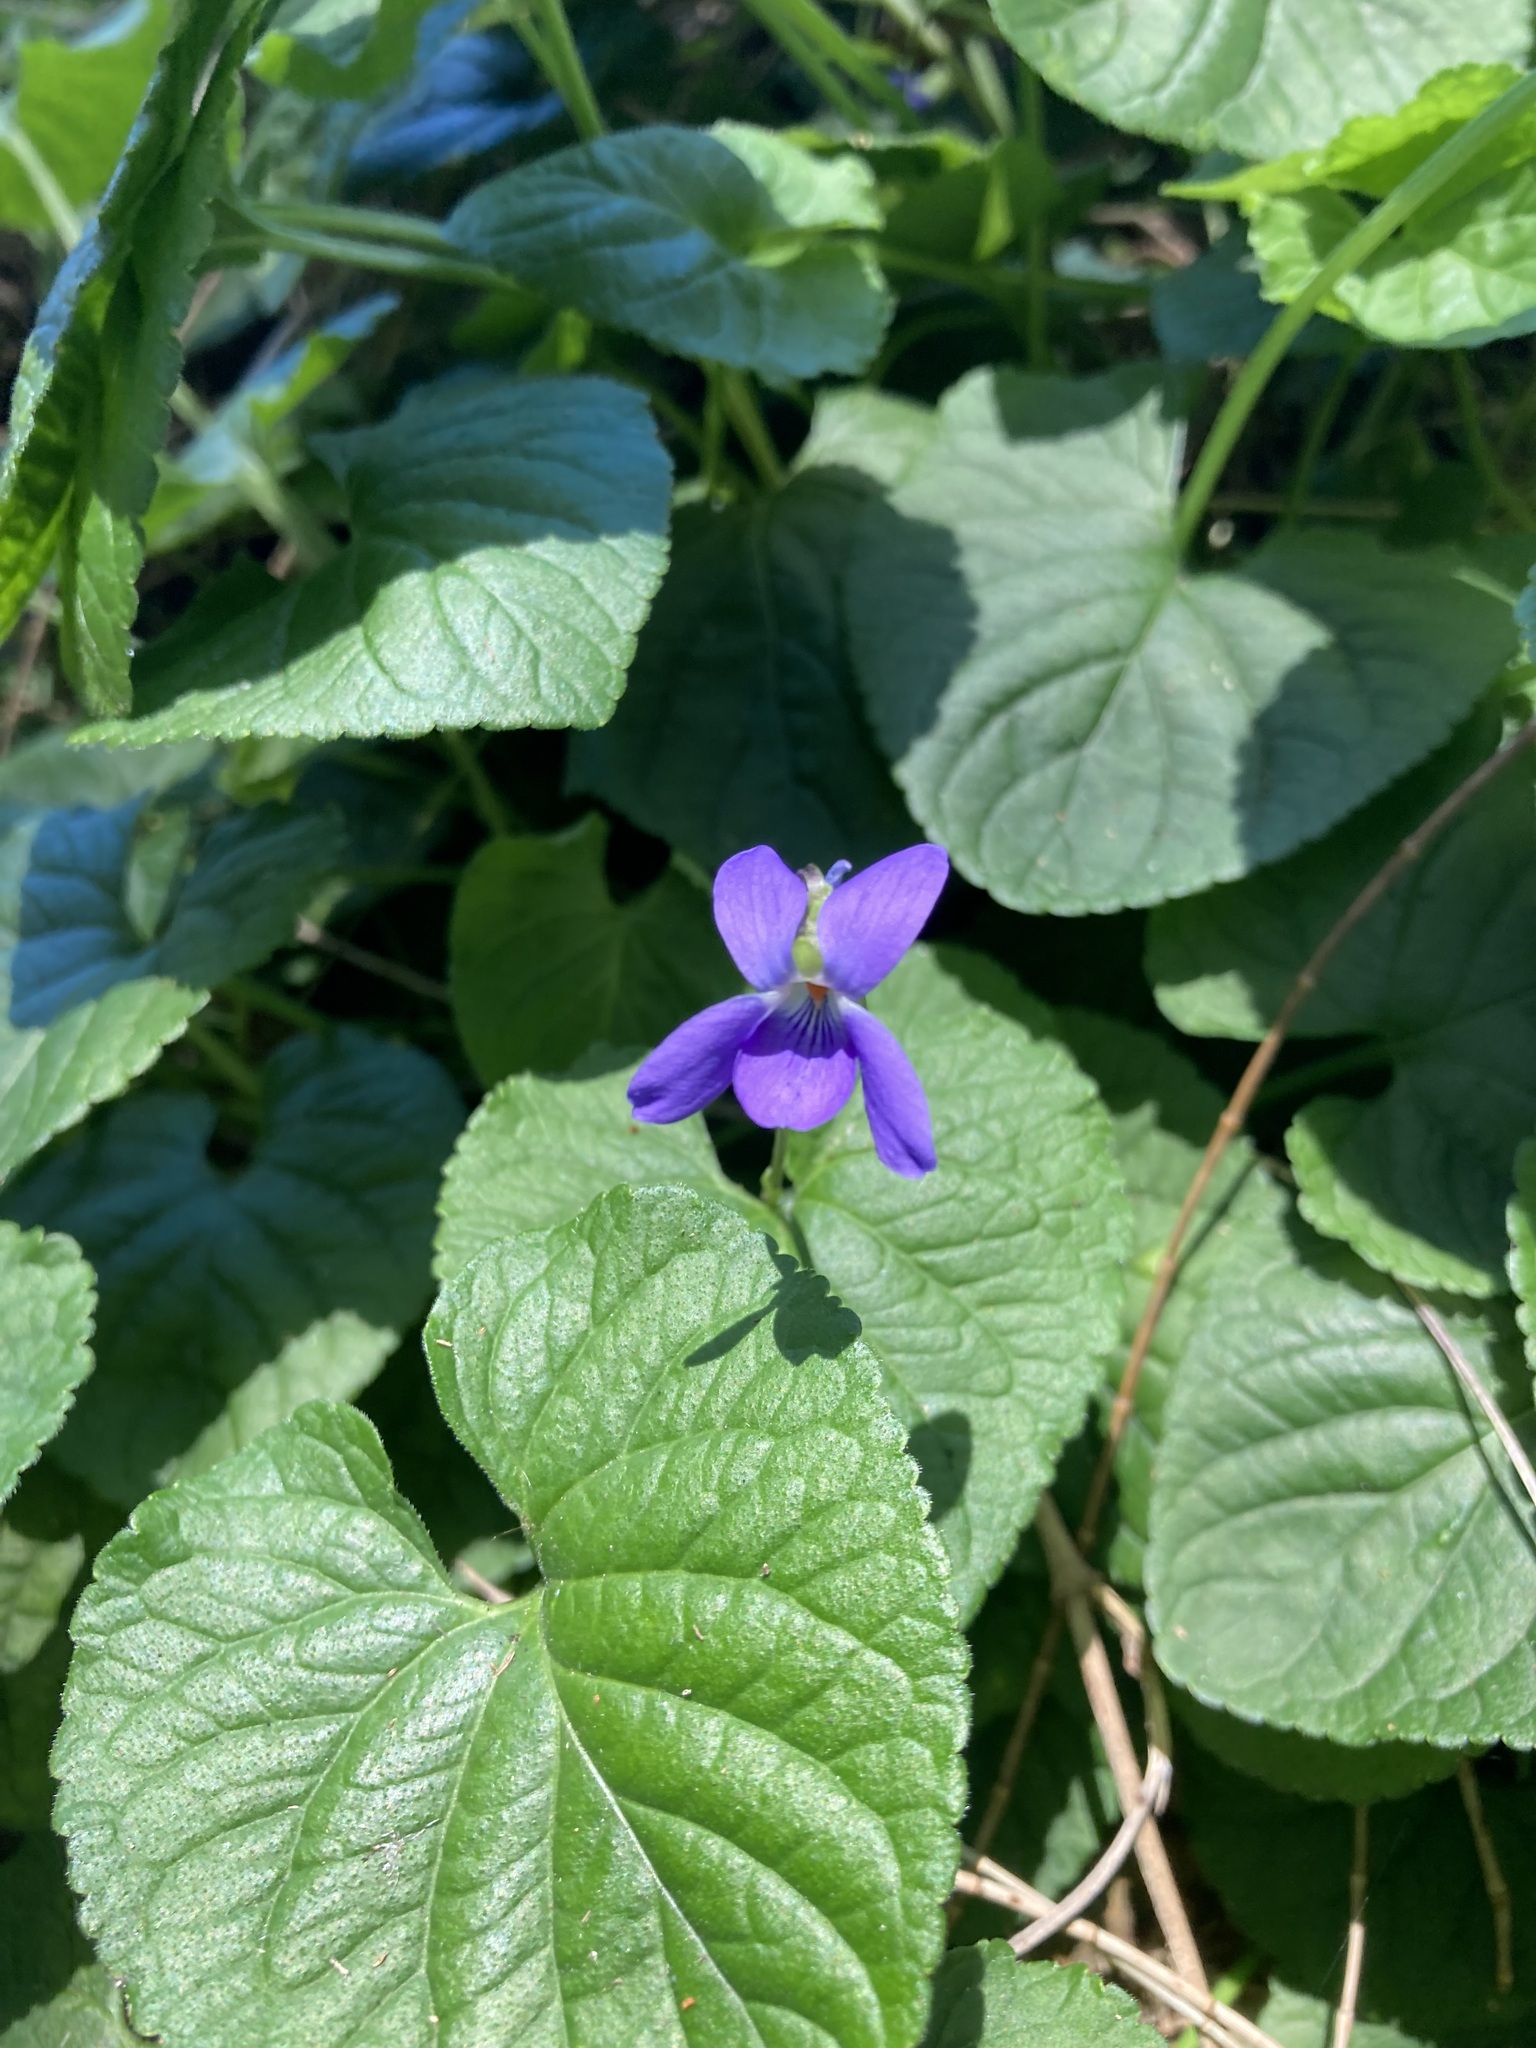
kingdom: Plantae
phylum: Tracheophyta
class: Magnoliopsida
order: Malpighiales
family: Violaceae
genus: Viola
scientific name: Viola odorata
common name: Sweet violet
